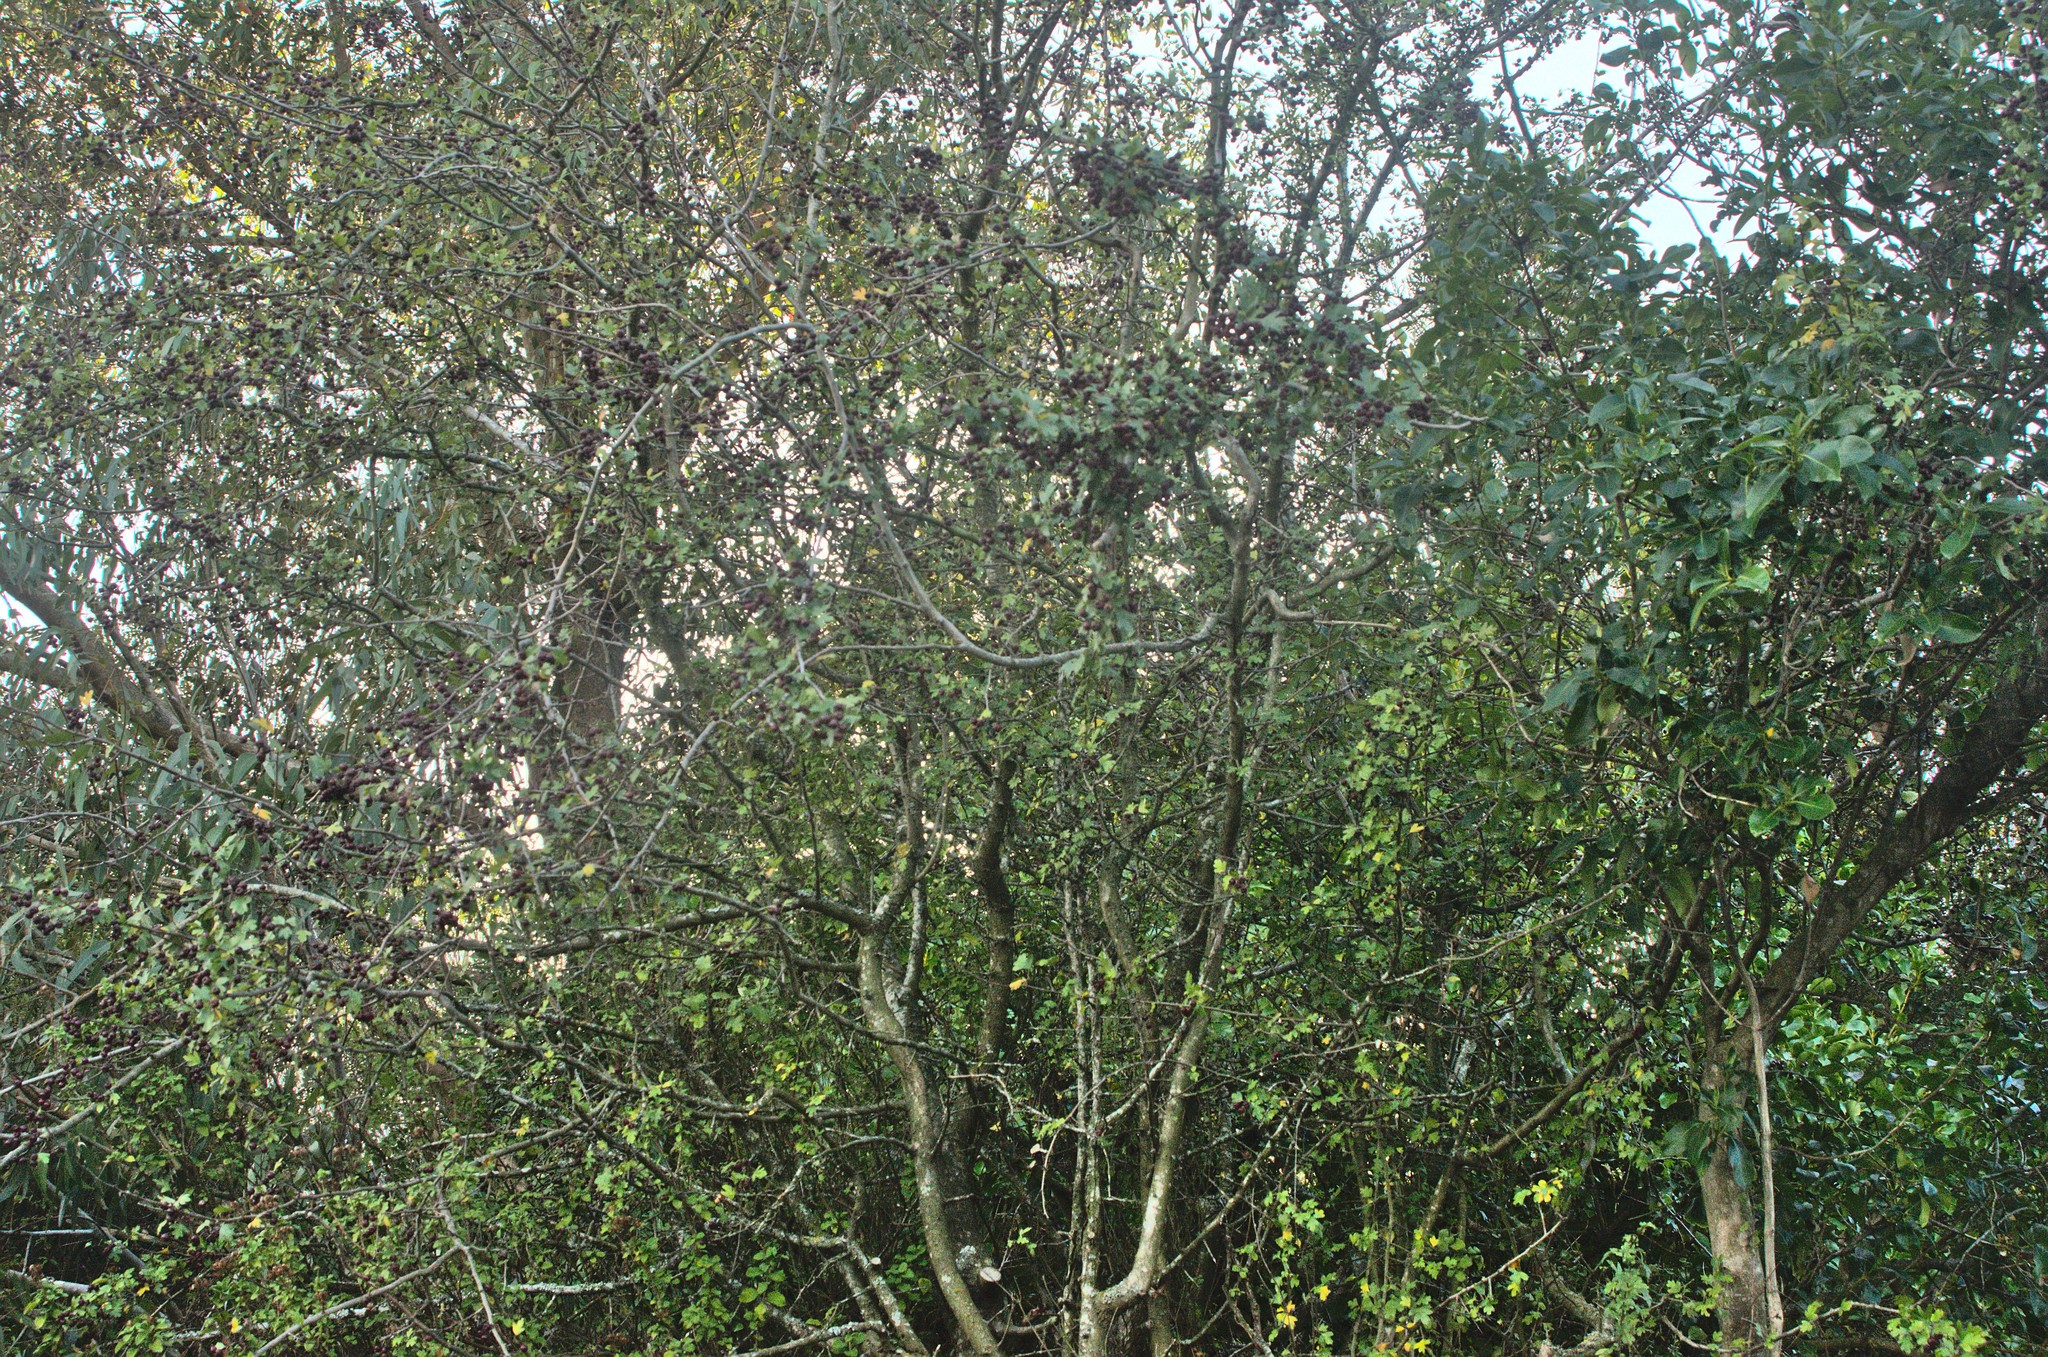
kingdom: Plantae
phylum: Tracheophyta
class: Magnoliopsida
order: Rosales
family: Rosaceae
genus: Crataegus
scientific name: Crataegus monogyna
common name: Hawthorn
